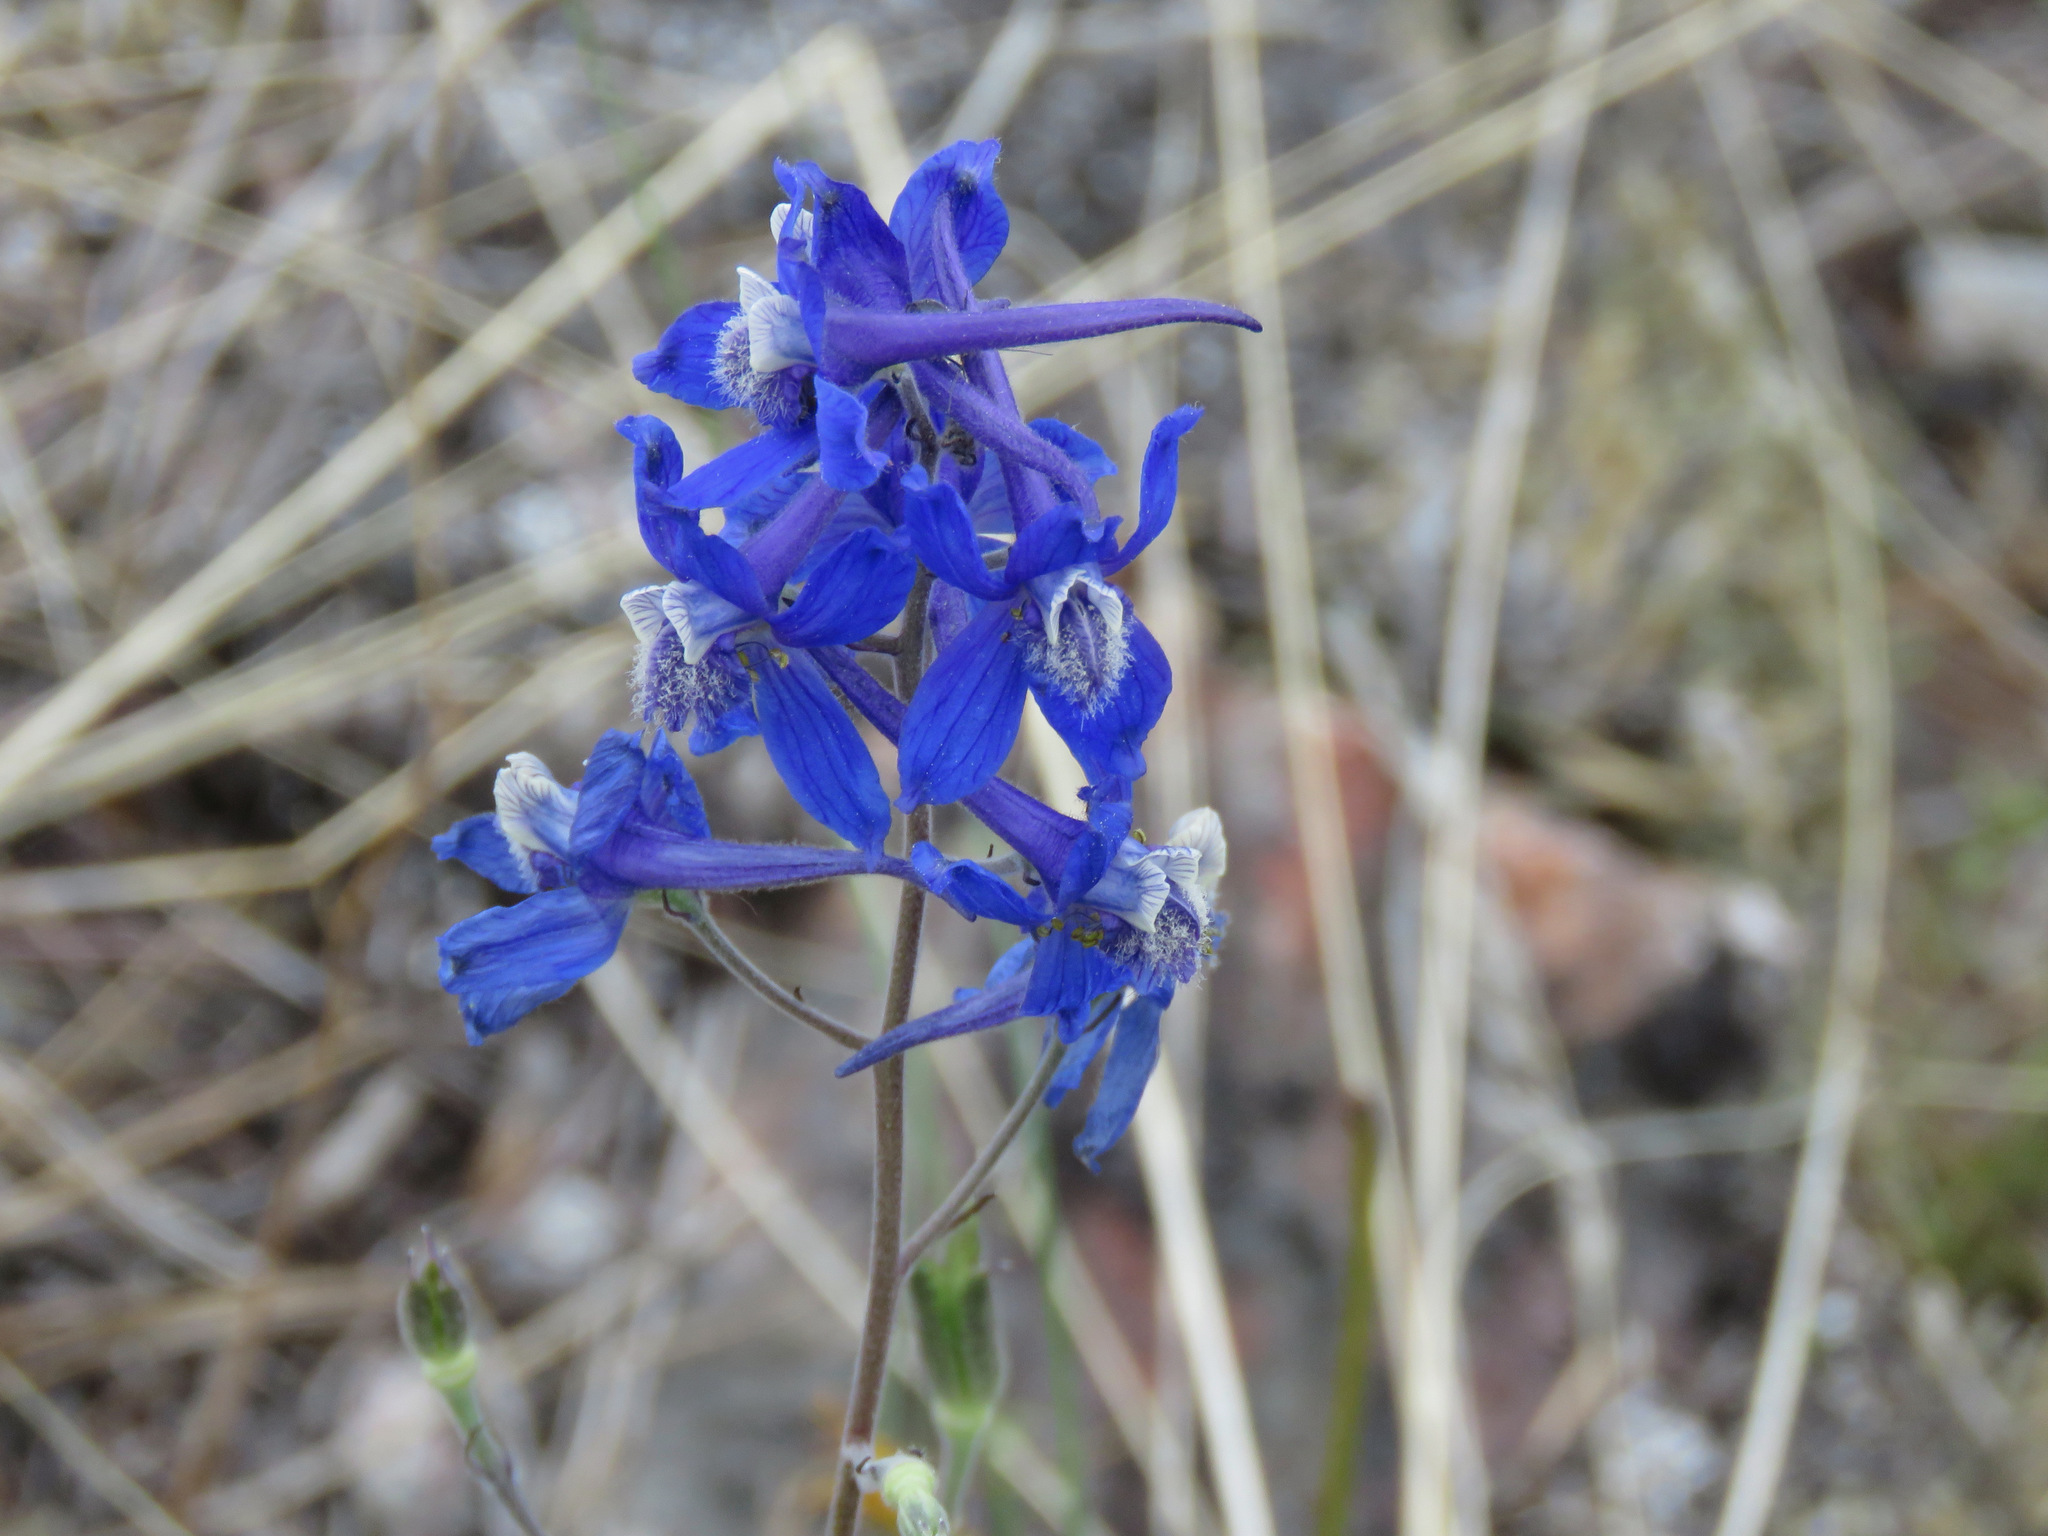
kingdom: Plantae
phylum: Tracheophyta
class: Magnoliopsida
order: Ranunculales
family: Ranunculaceae
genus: Delphinium
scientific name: Delphinium nuttallianum
